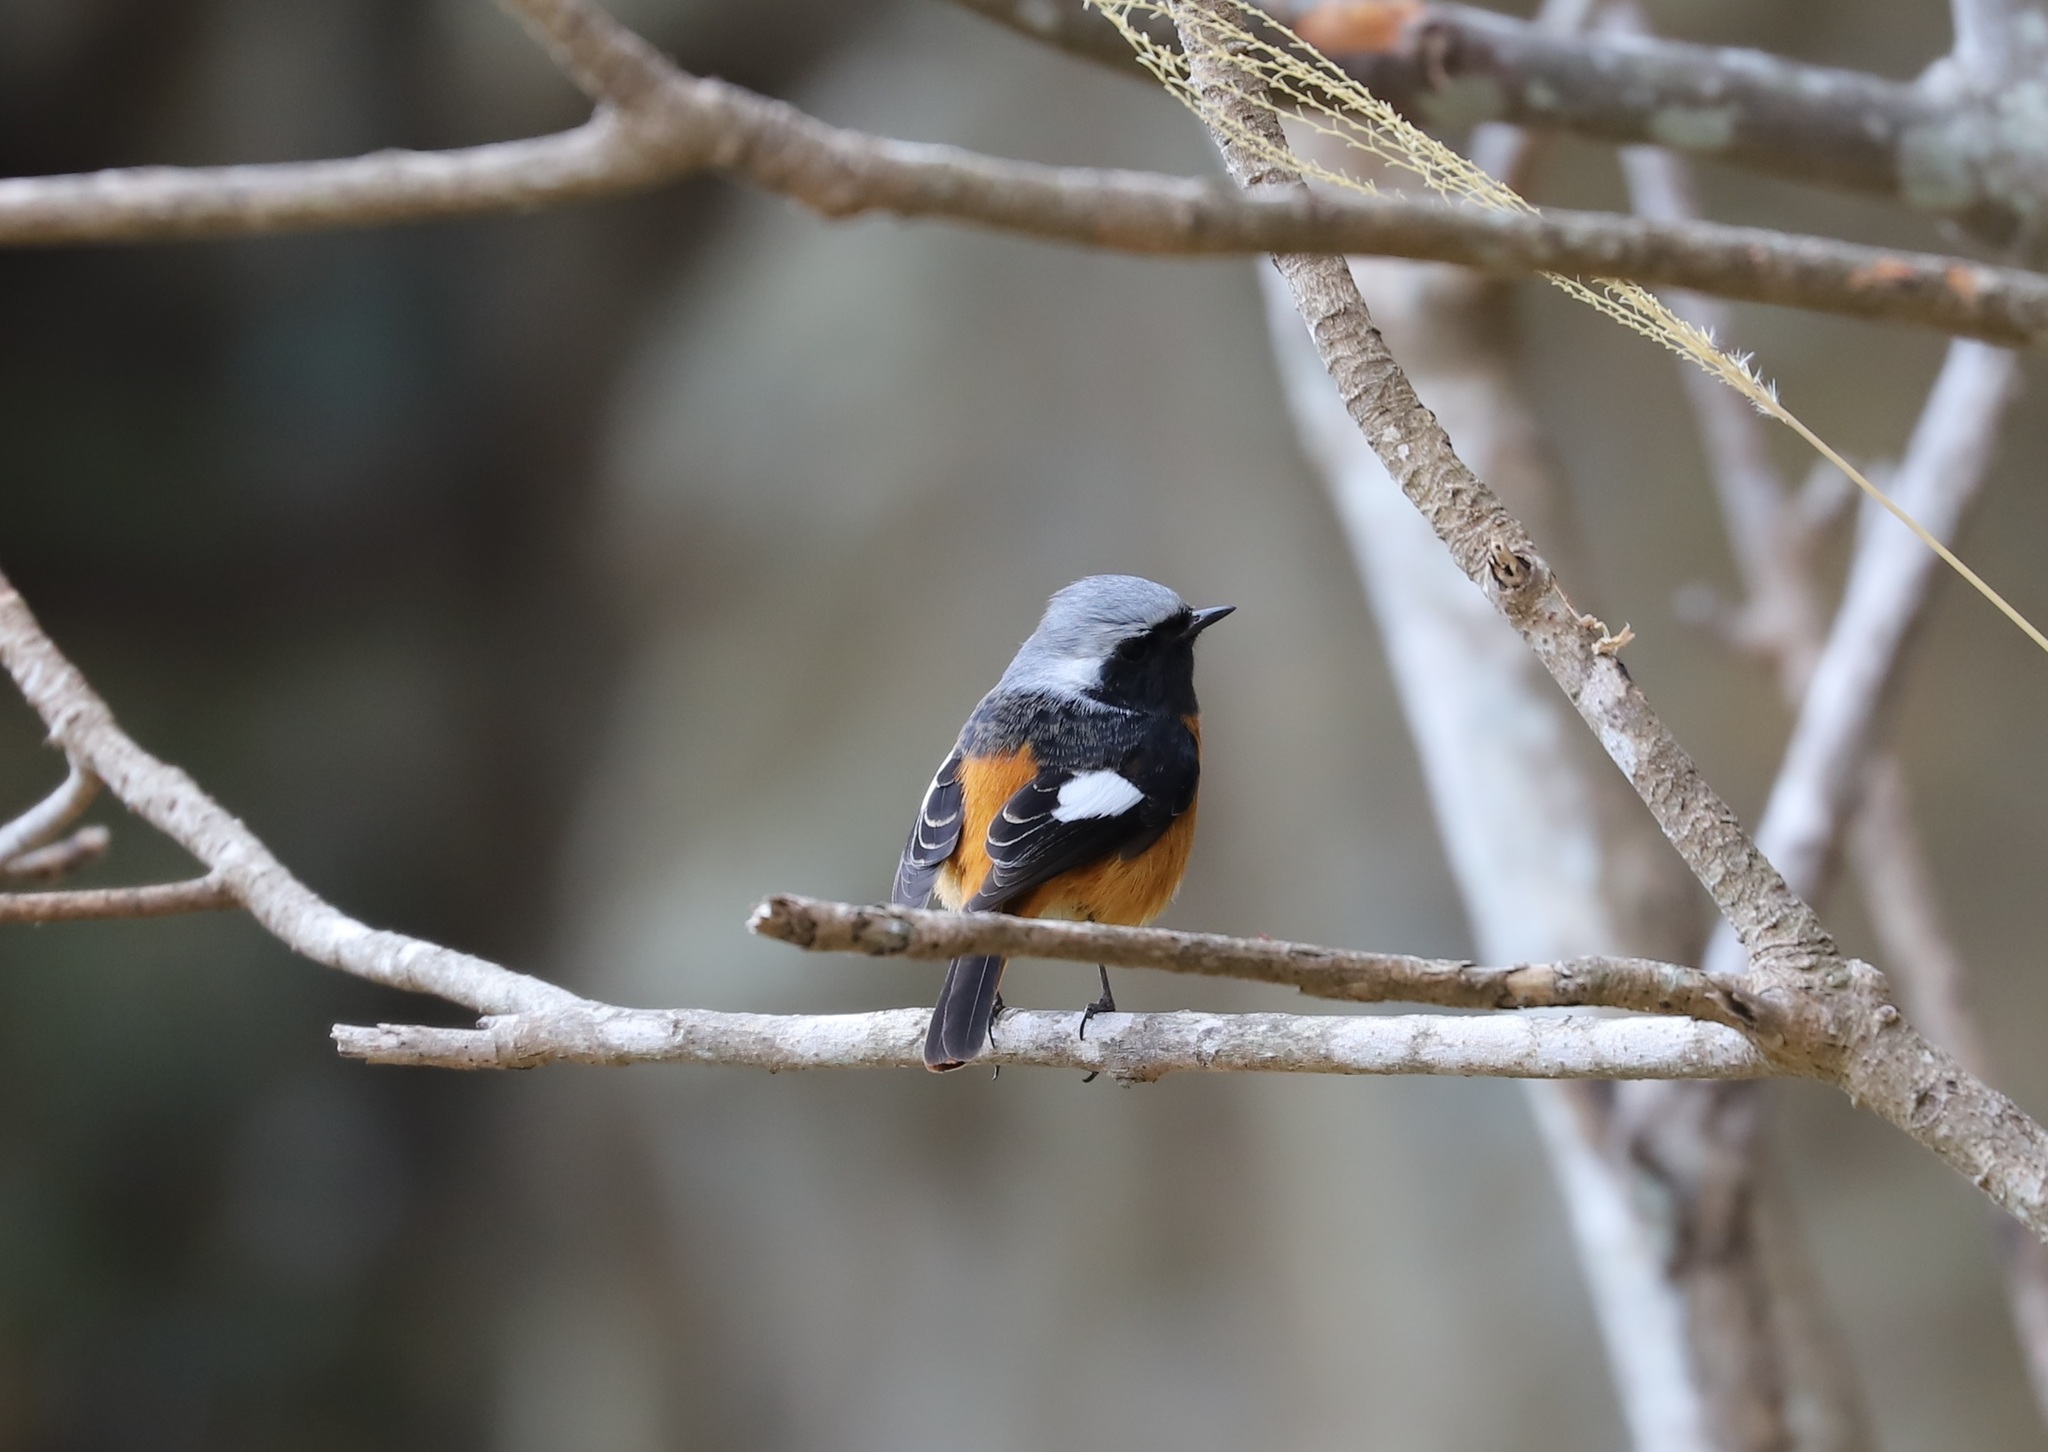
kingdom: Animalia
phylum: Chordata
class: Aves
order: Passeriformes
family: Muscicapidae
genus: Phoenicurus
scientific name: Phoenicurus auroreus
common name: Daurian redstart
